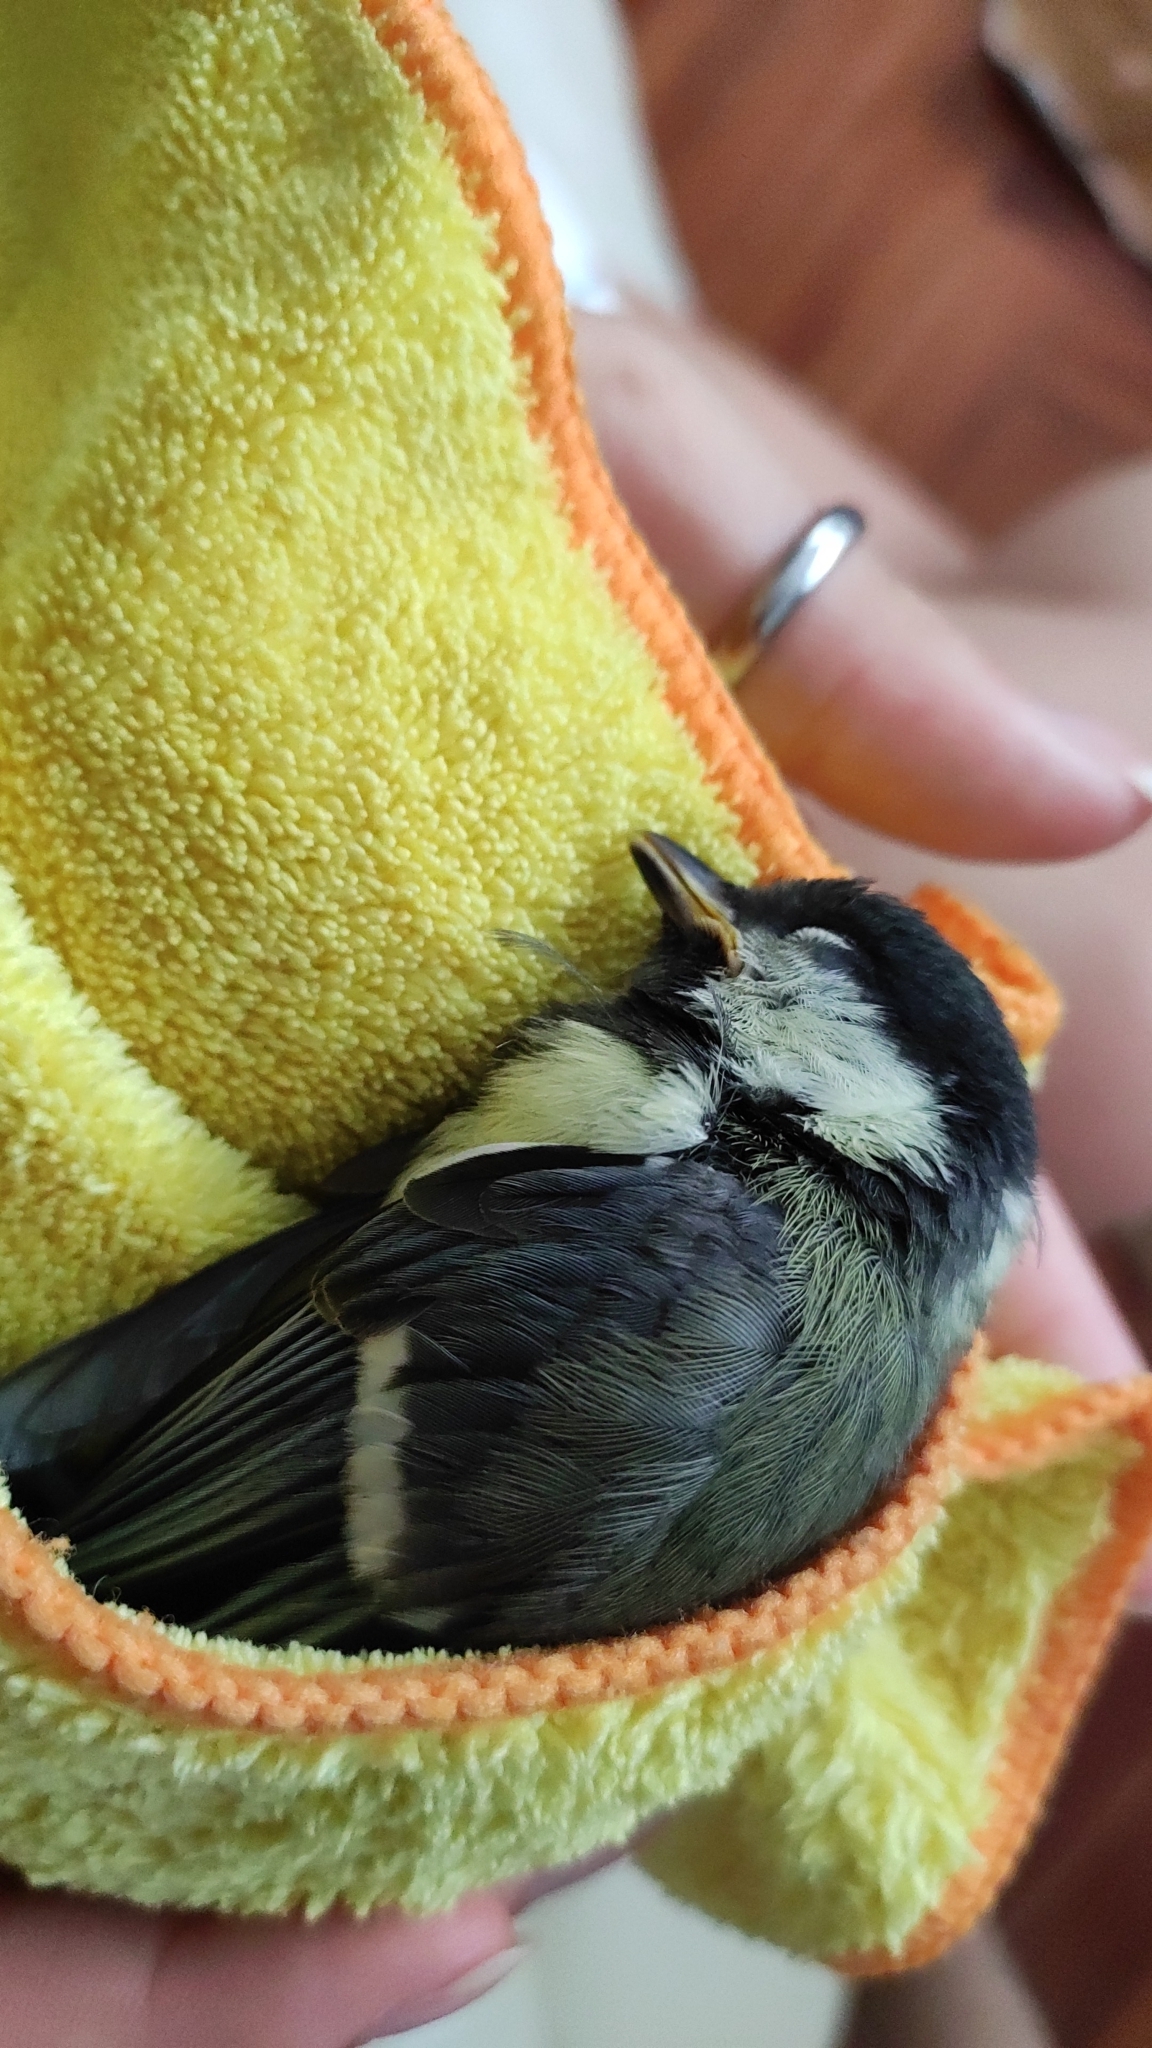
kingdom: Animalia
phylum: Chordata
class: Aves
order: Passeriformes
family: Paridae
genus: Periparus
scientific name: Periparus ater
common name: Coal tit
